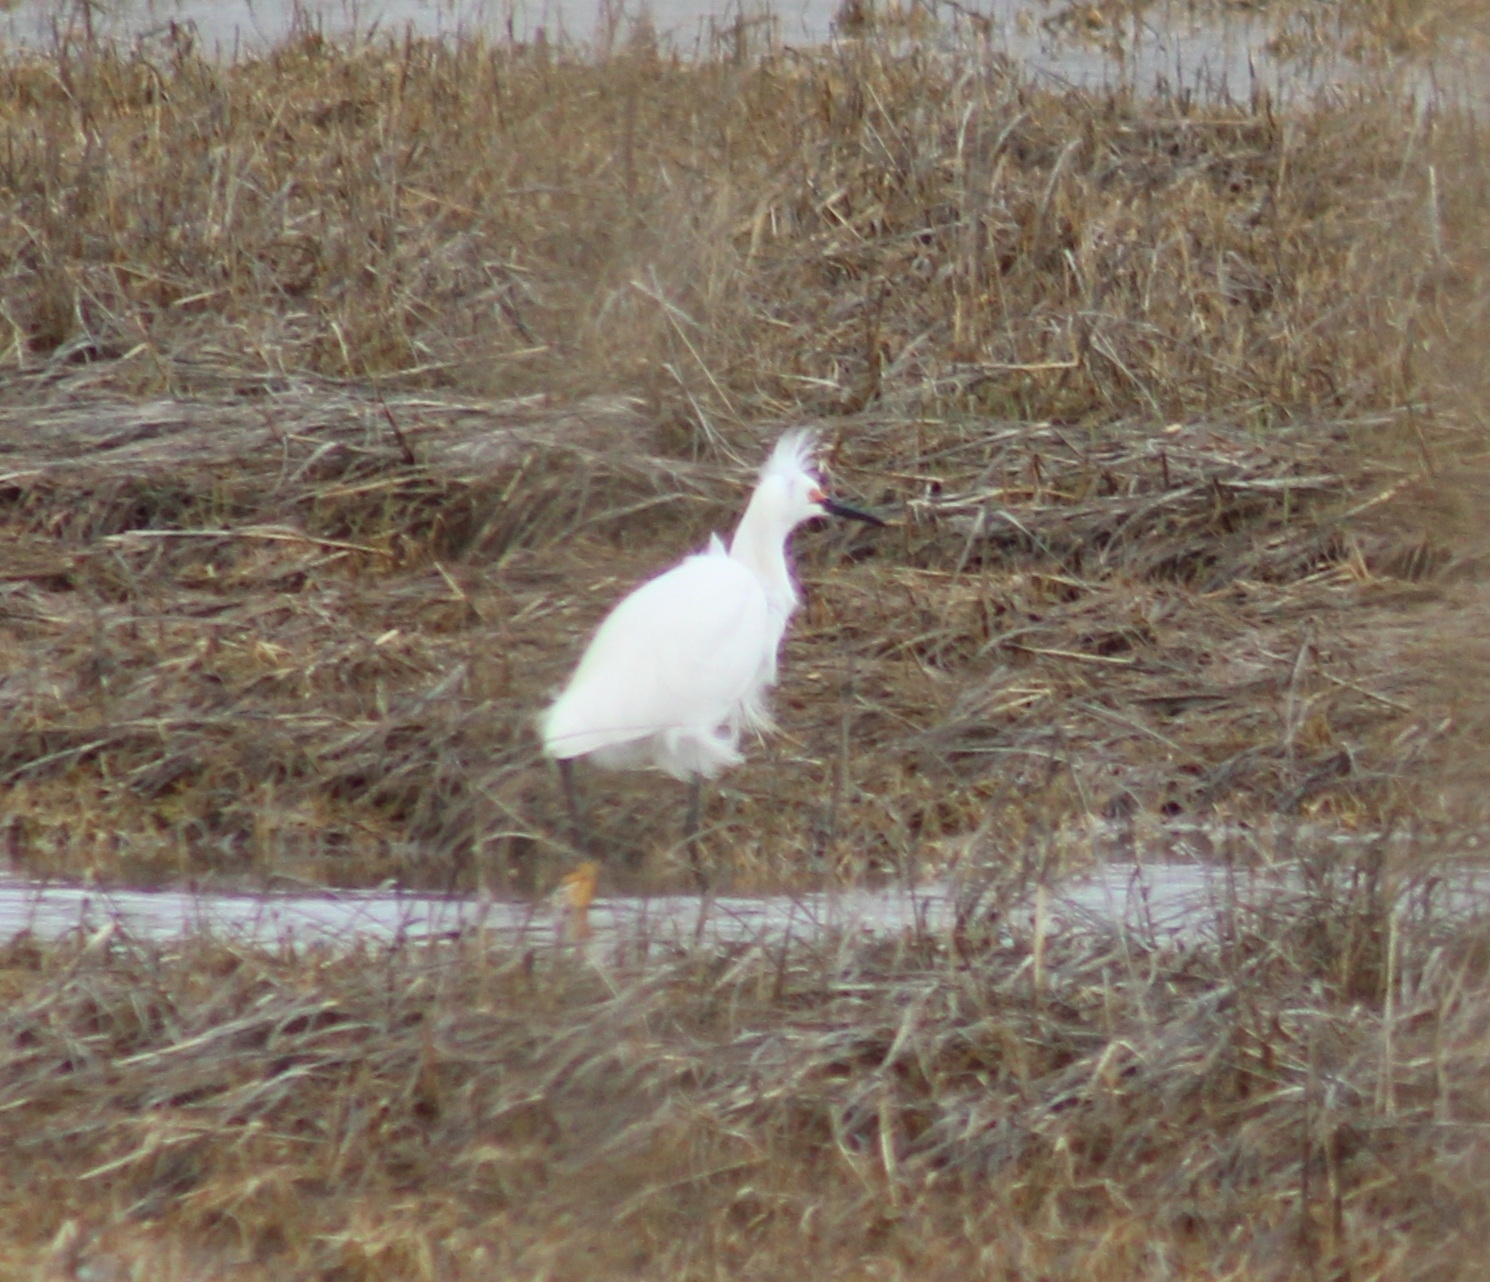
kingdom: Animalia
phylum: Chordata
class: Aves
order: Pelecaniformes
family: Ardeidae
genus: Egretta
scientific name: Egretta thula
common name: Snowy egret
